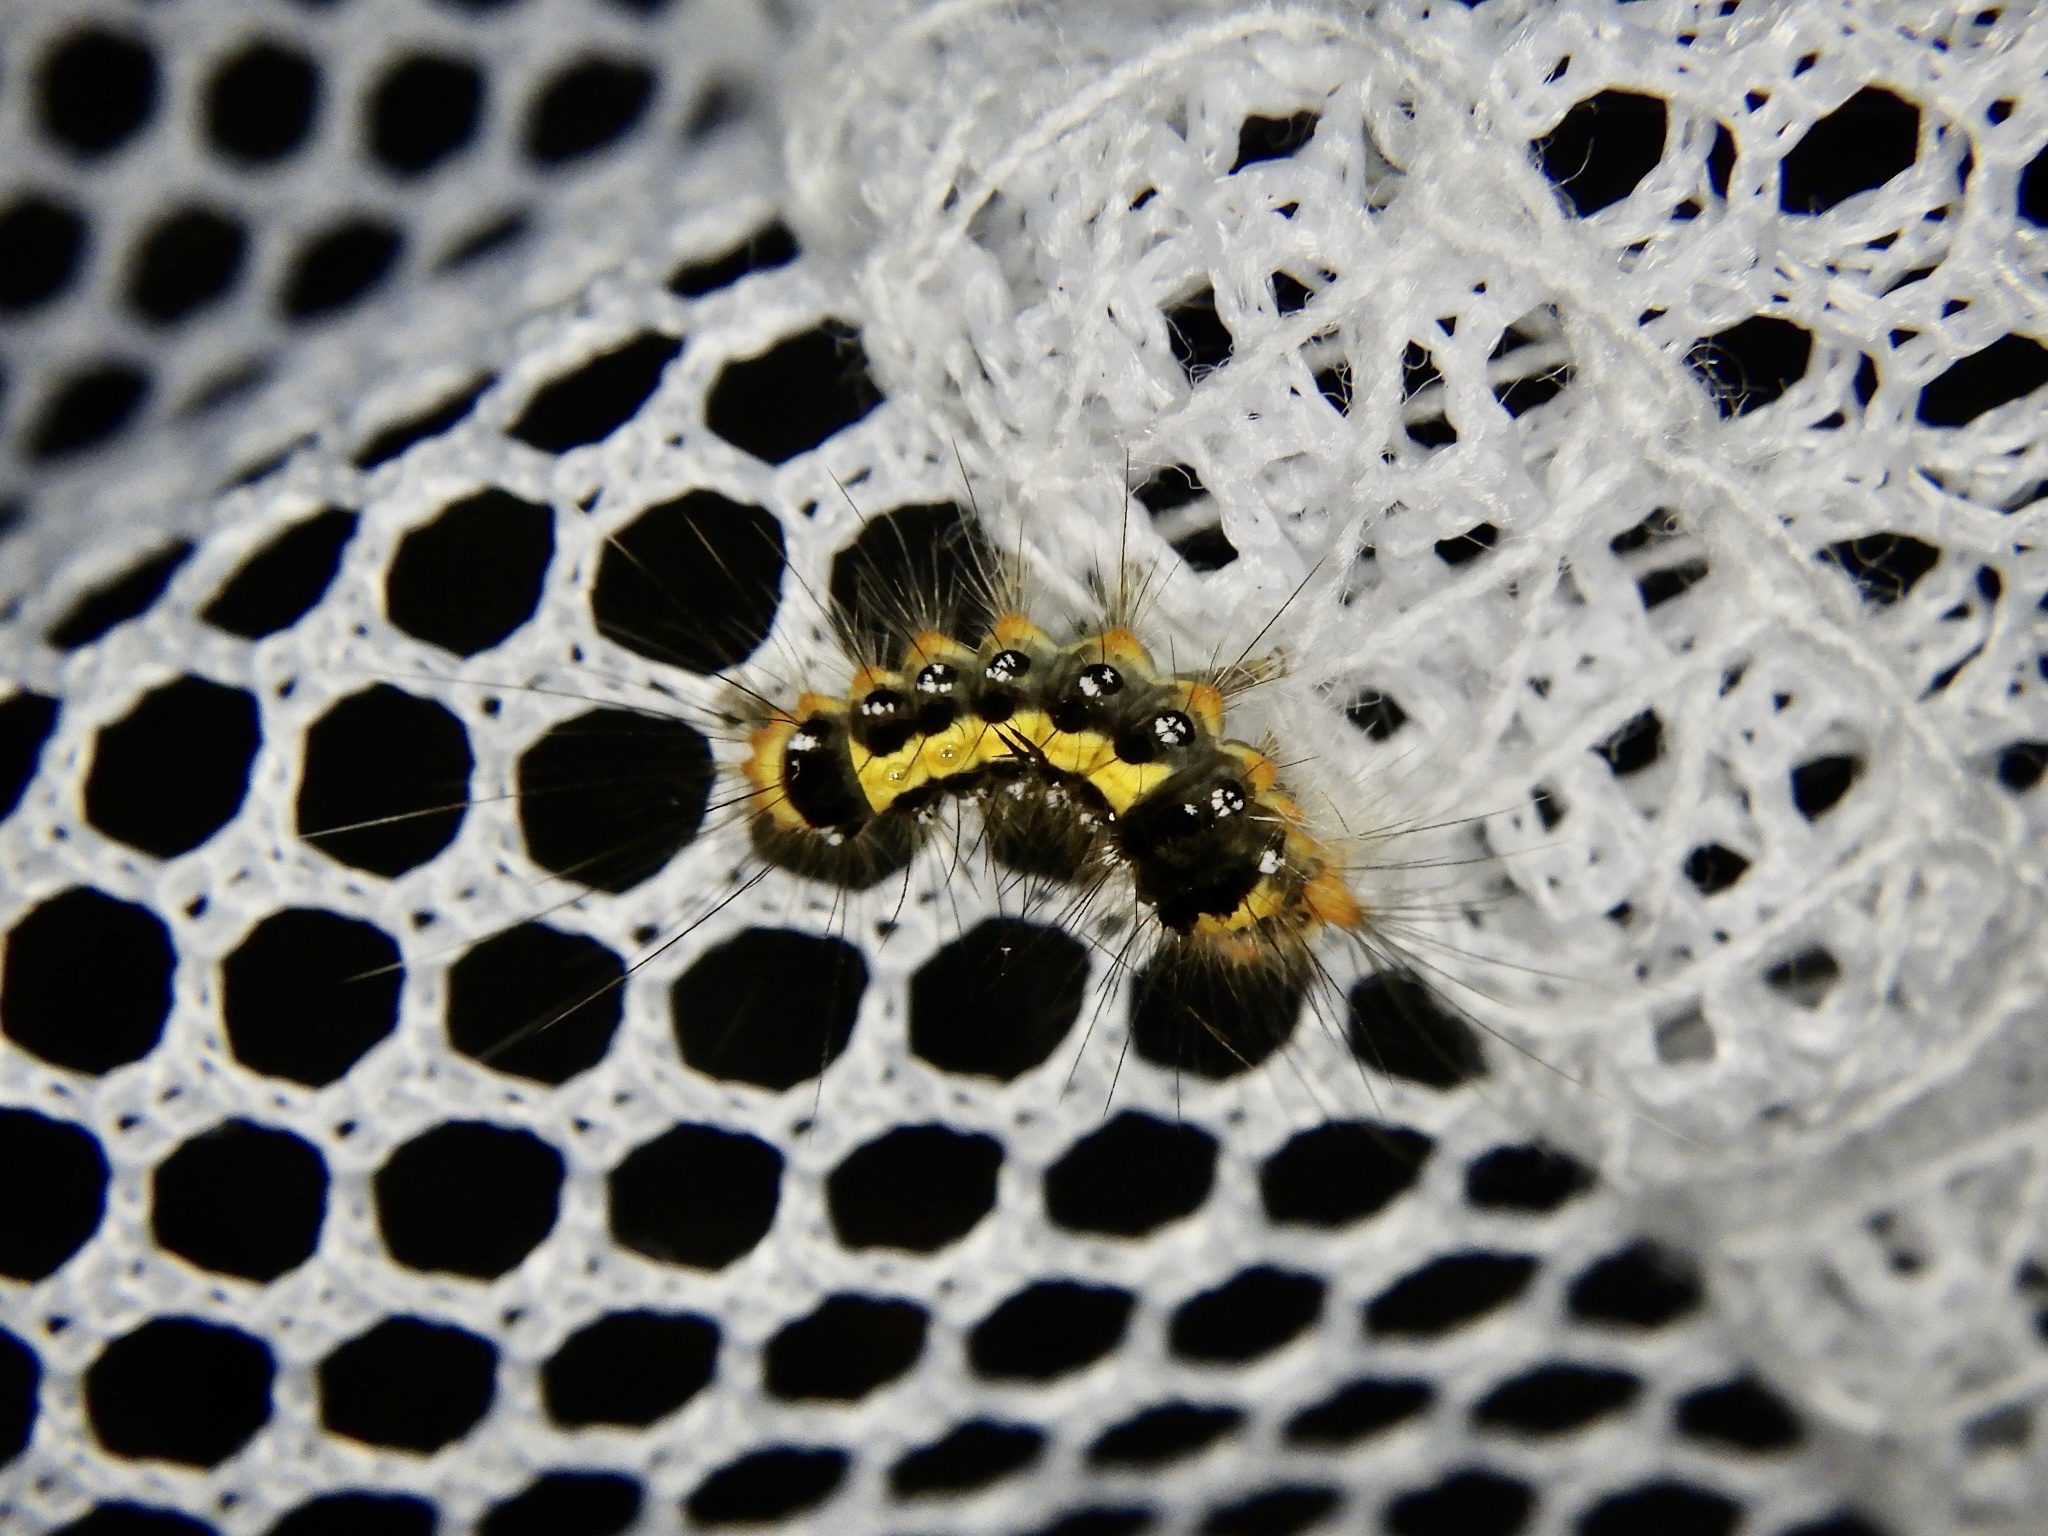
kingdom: Animalia
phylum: Arthropoda
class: Insecta
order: Lepidoptera
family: Erebidae
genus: Somena
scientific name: Somena
